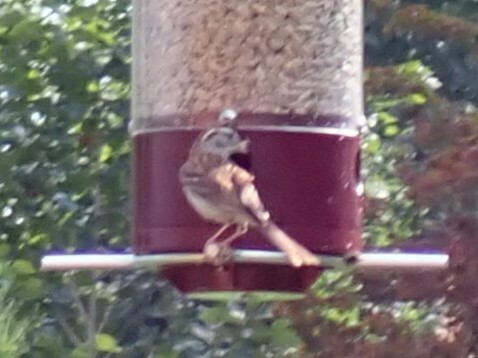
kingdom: Animalia
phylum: Chordata
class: Aves
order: Passeriformes
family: Passerellidae
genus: Spizella
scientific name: Spizella passerina
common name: Chipping sparrow
